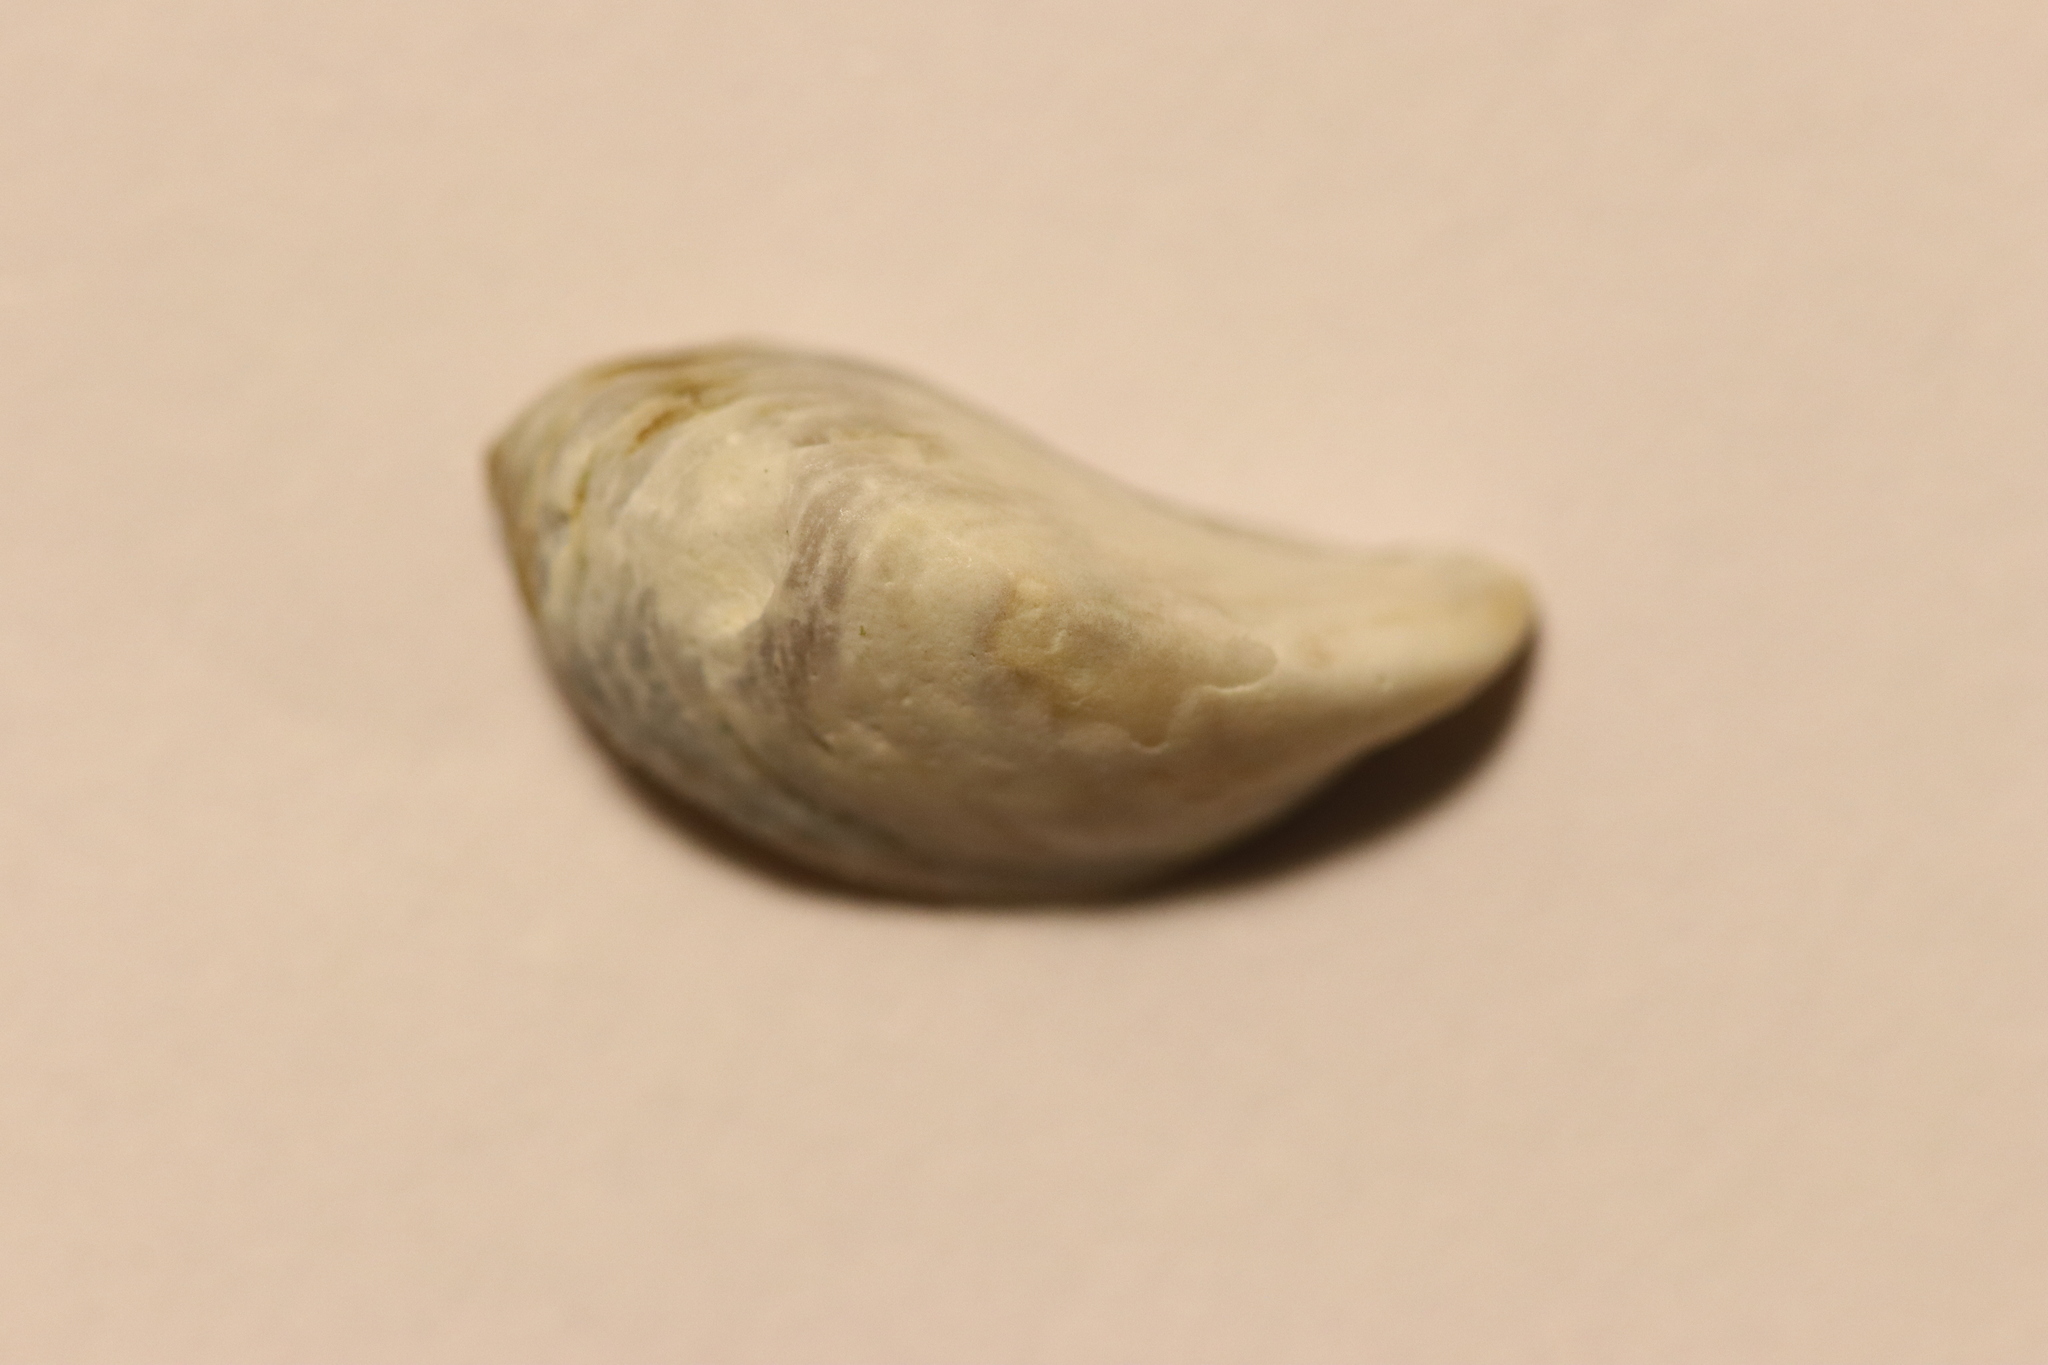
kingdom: Animalia
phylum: Mollusca
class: Bivalvia
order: Myida
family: Dreissenidae
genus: Dreissena
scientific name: Dreissena polymorpha
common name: Zebra mussel
